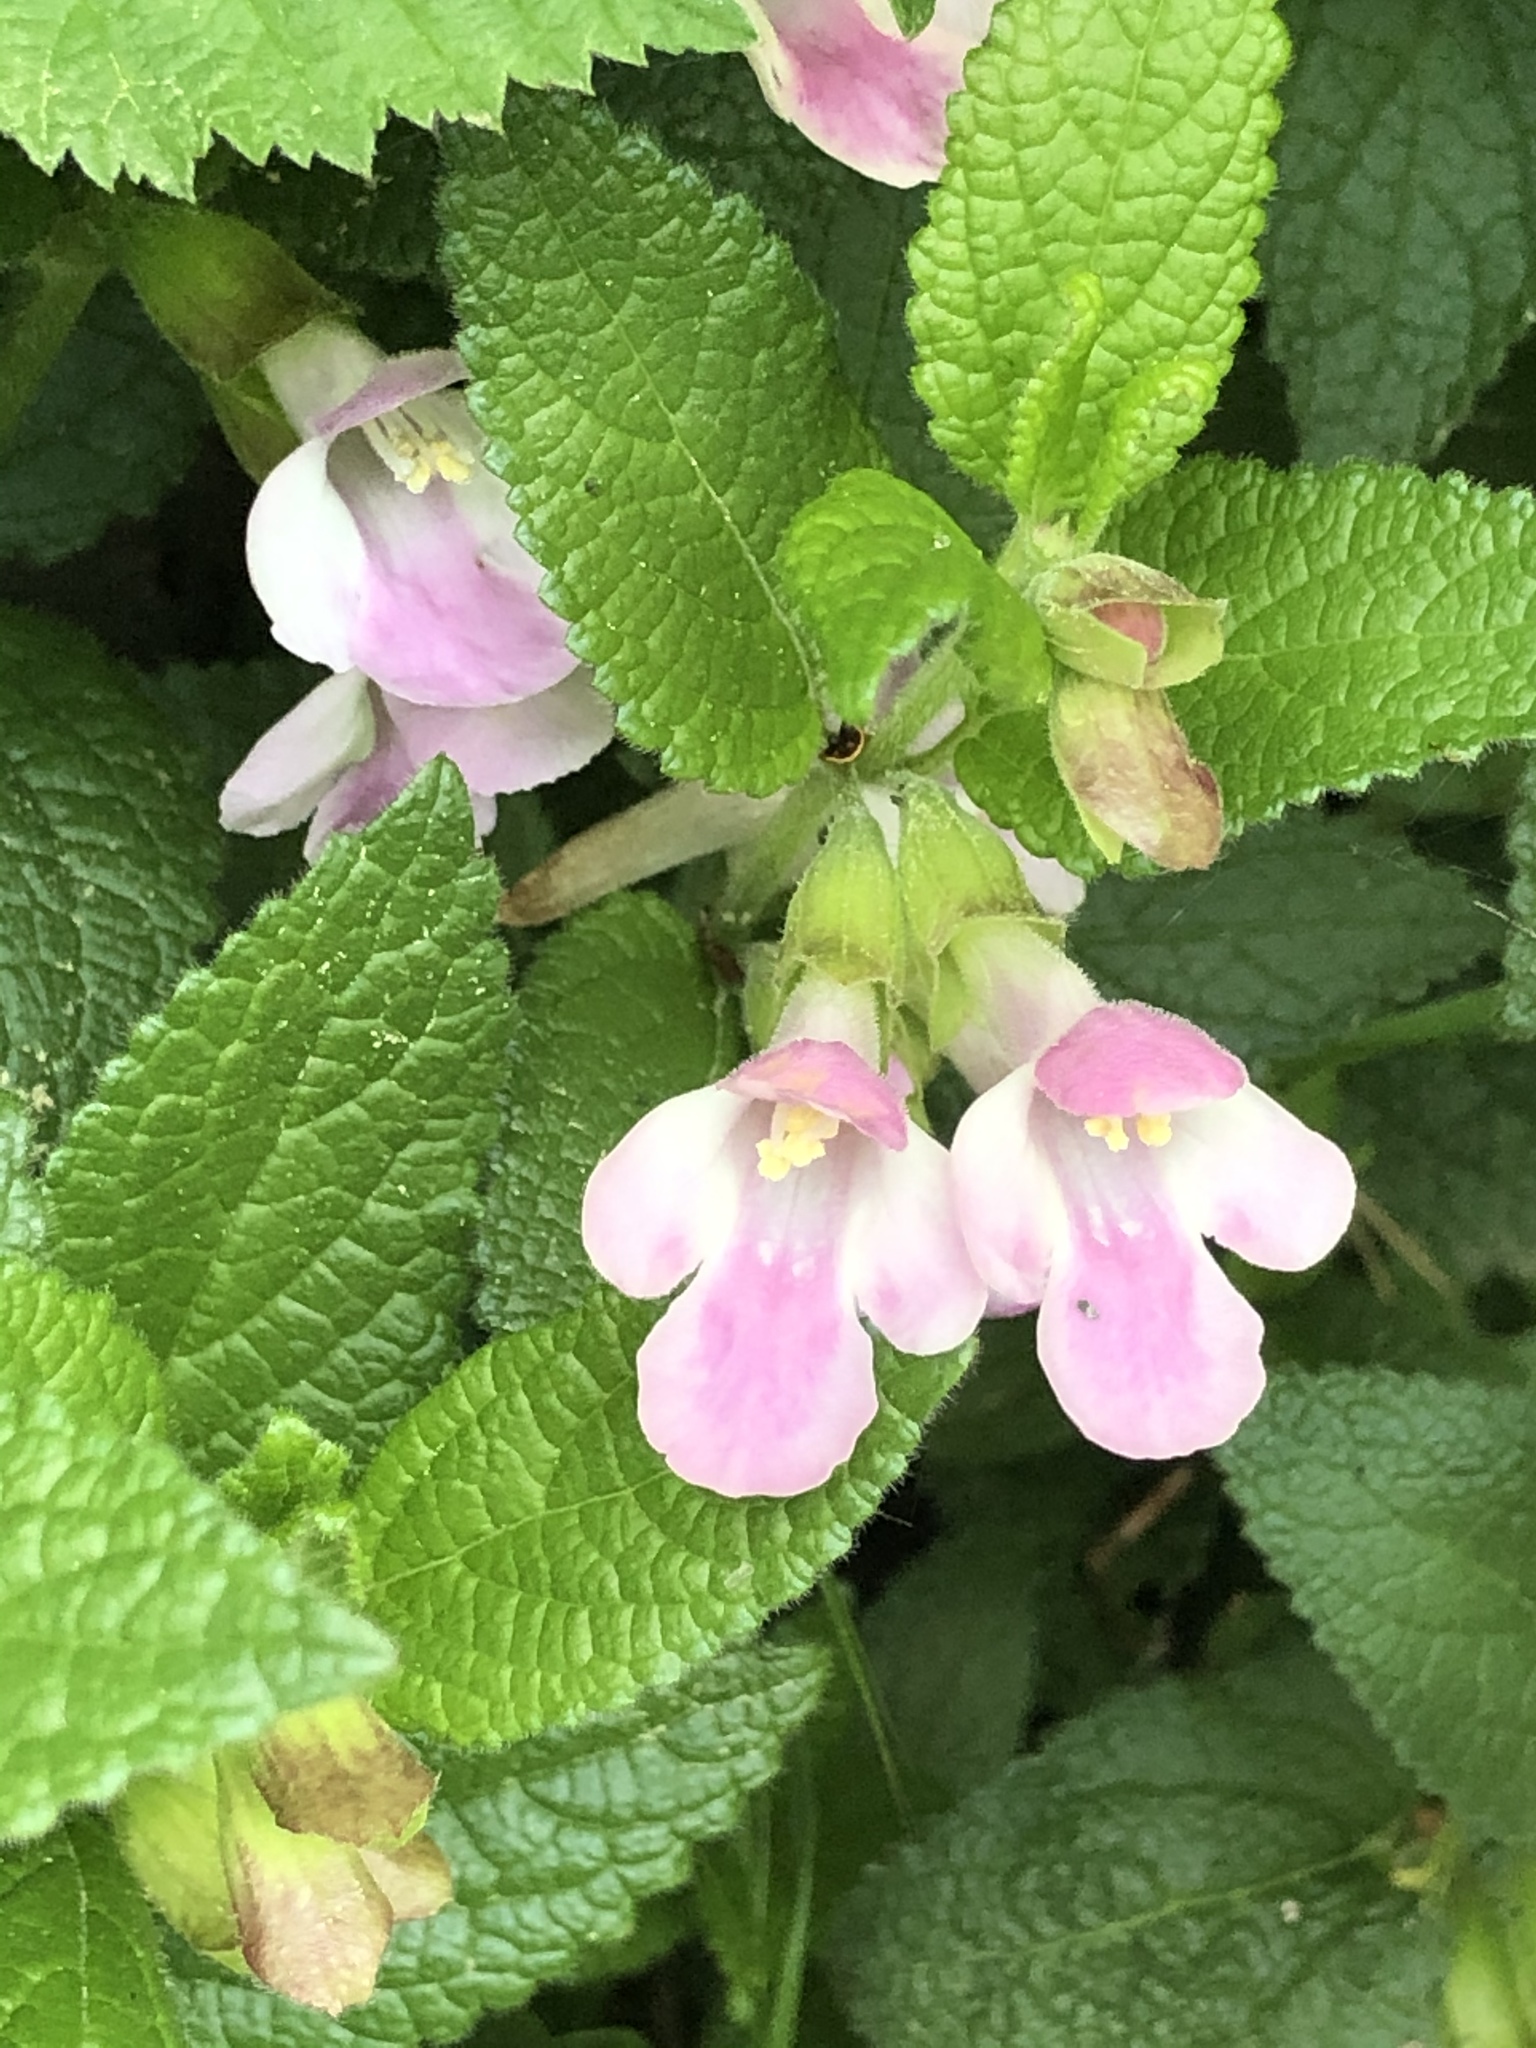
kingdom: Plantae
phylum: Tracheophyta
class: Magnoliopsida
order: Lamiales
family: Lamiaceae
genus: Melittis
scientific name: Melittis melissophyllum
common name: Bastard balm
